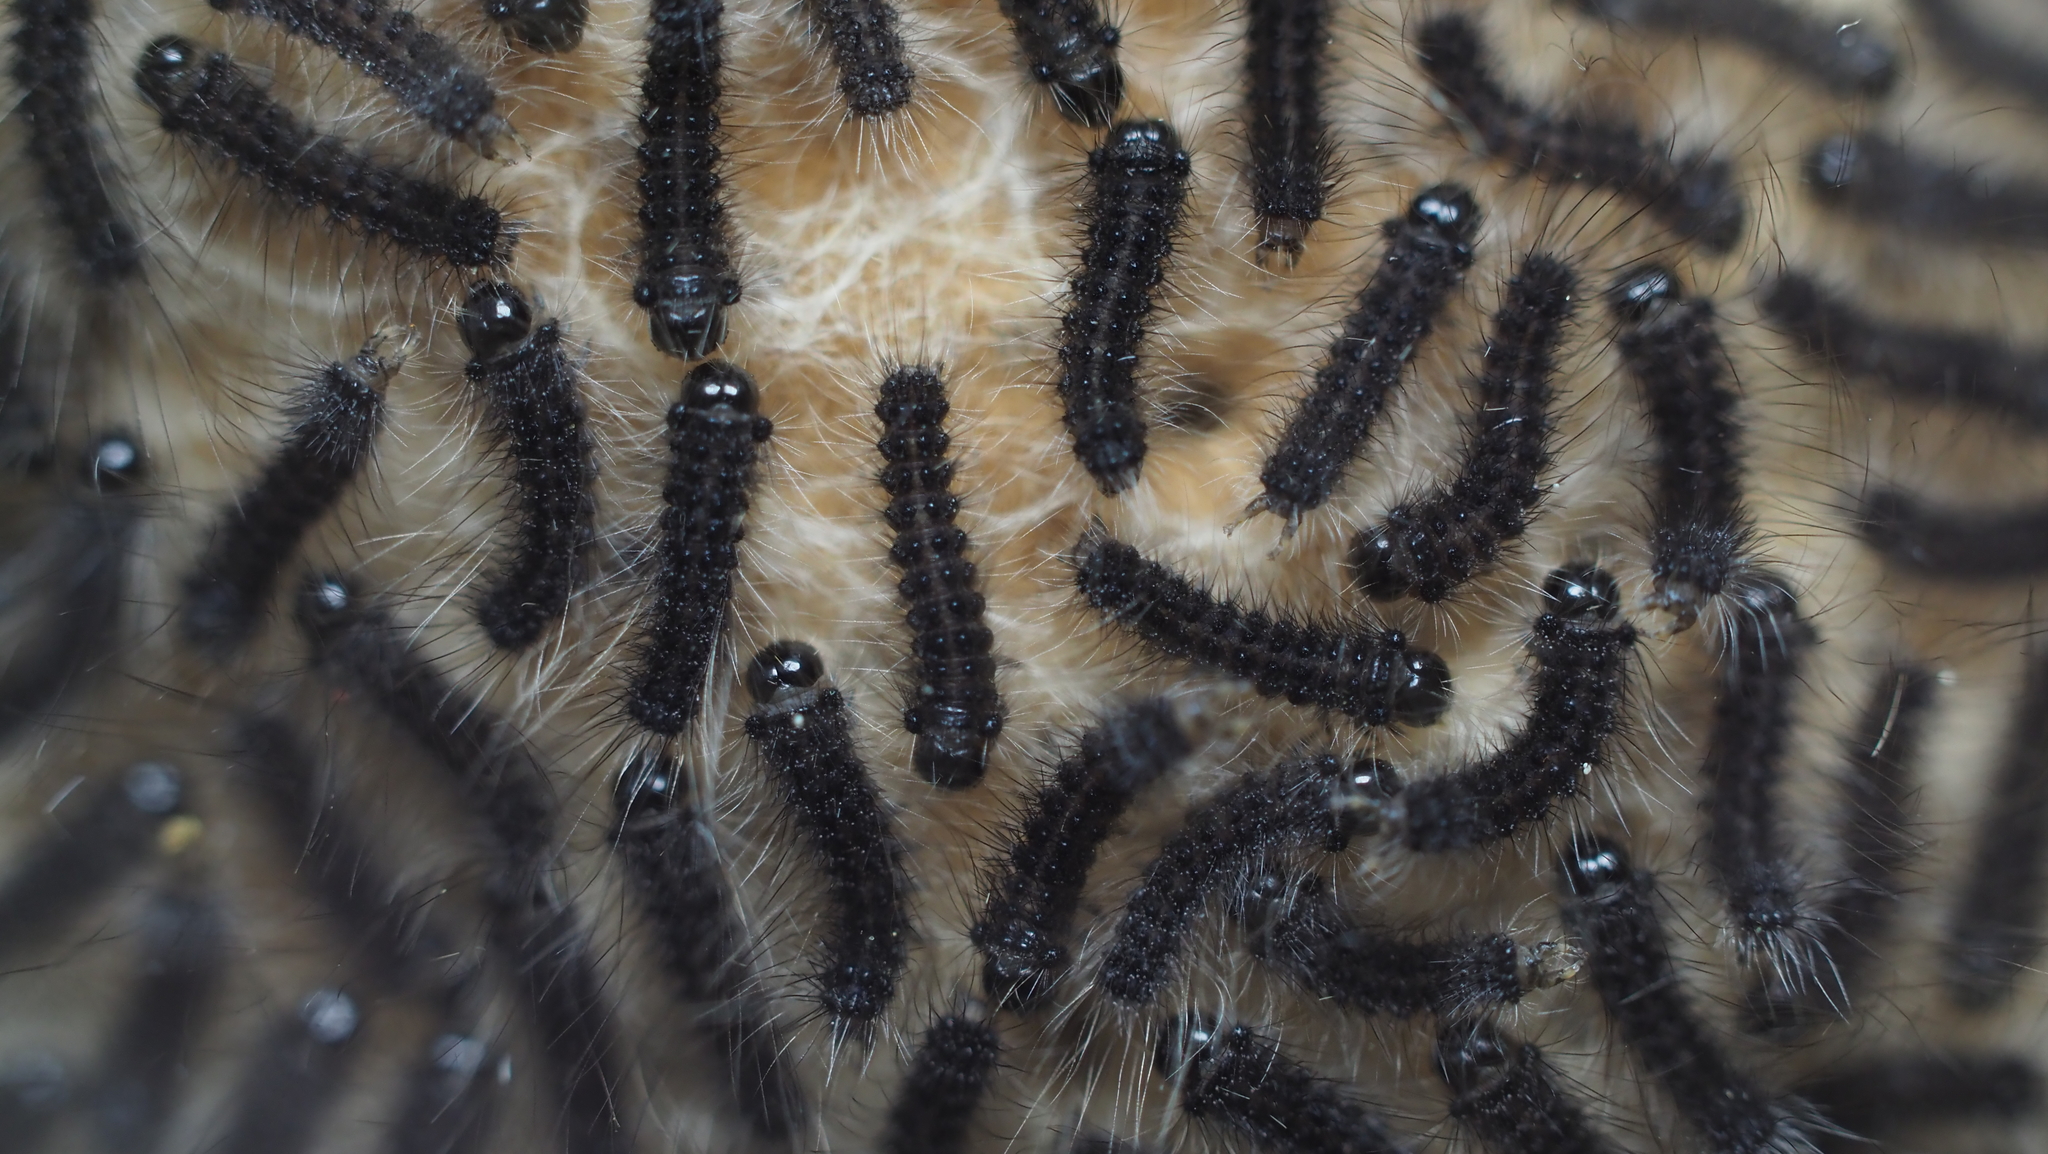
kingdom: Animalia
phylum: Arthropoda
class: Insecta
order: Lepidoptera
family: Erebidae
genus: Lymantria
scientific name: Lymantria dispar
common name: Gypsy moth
